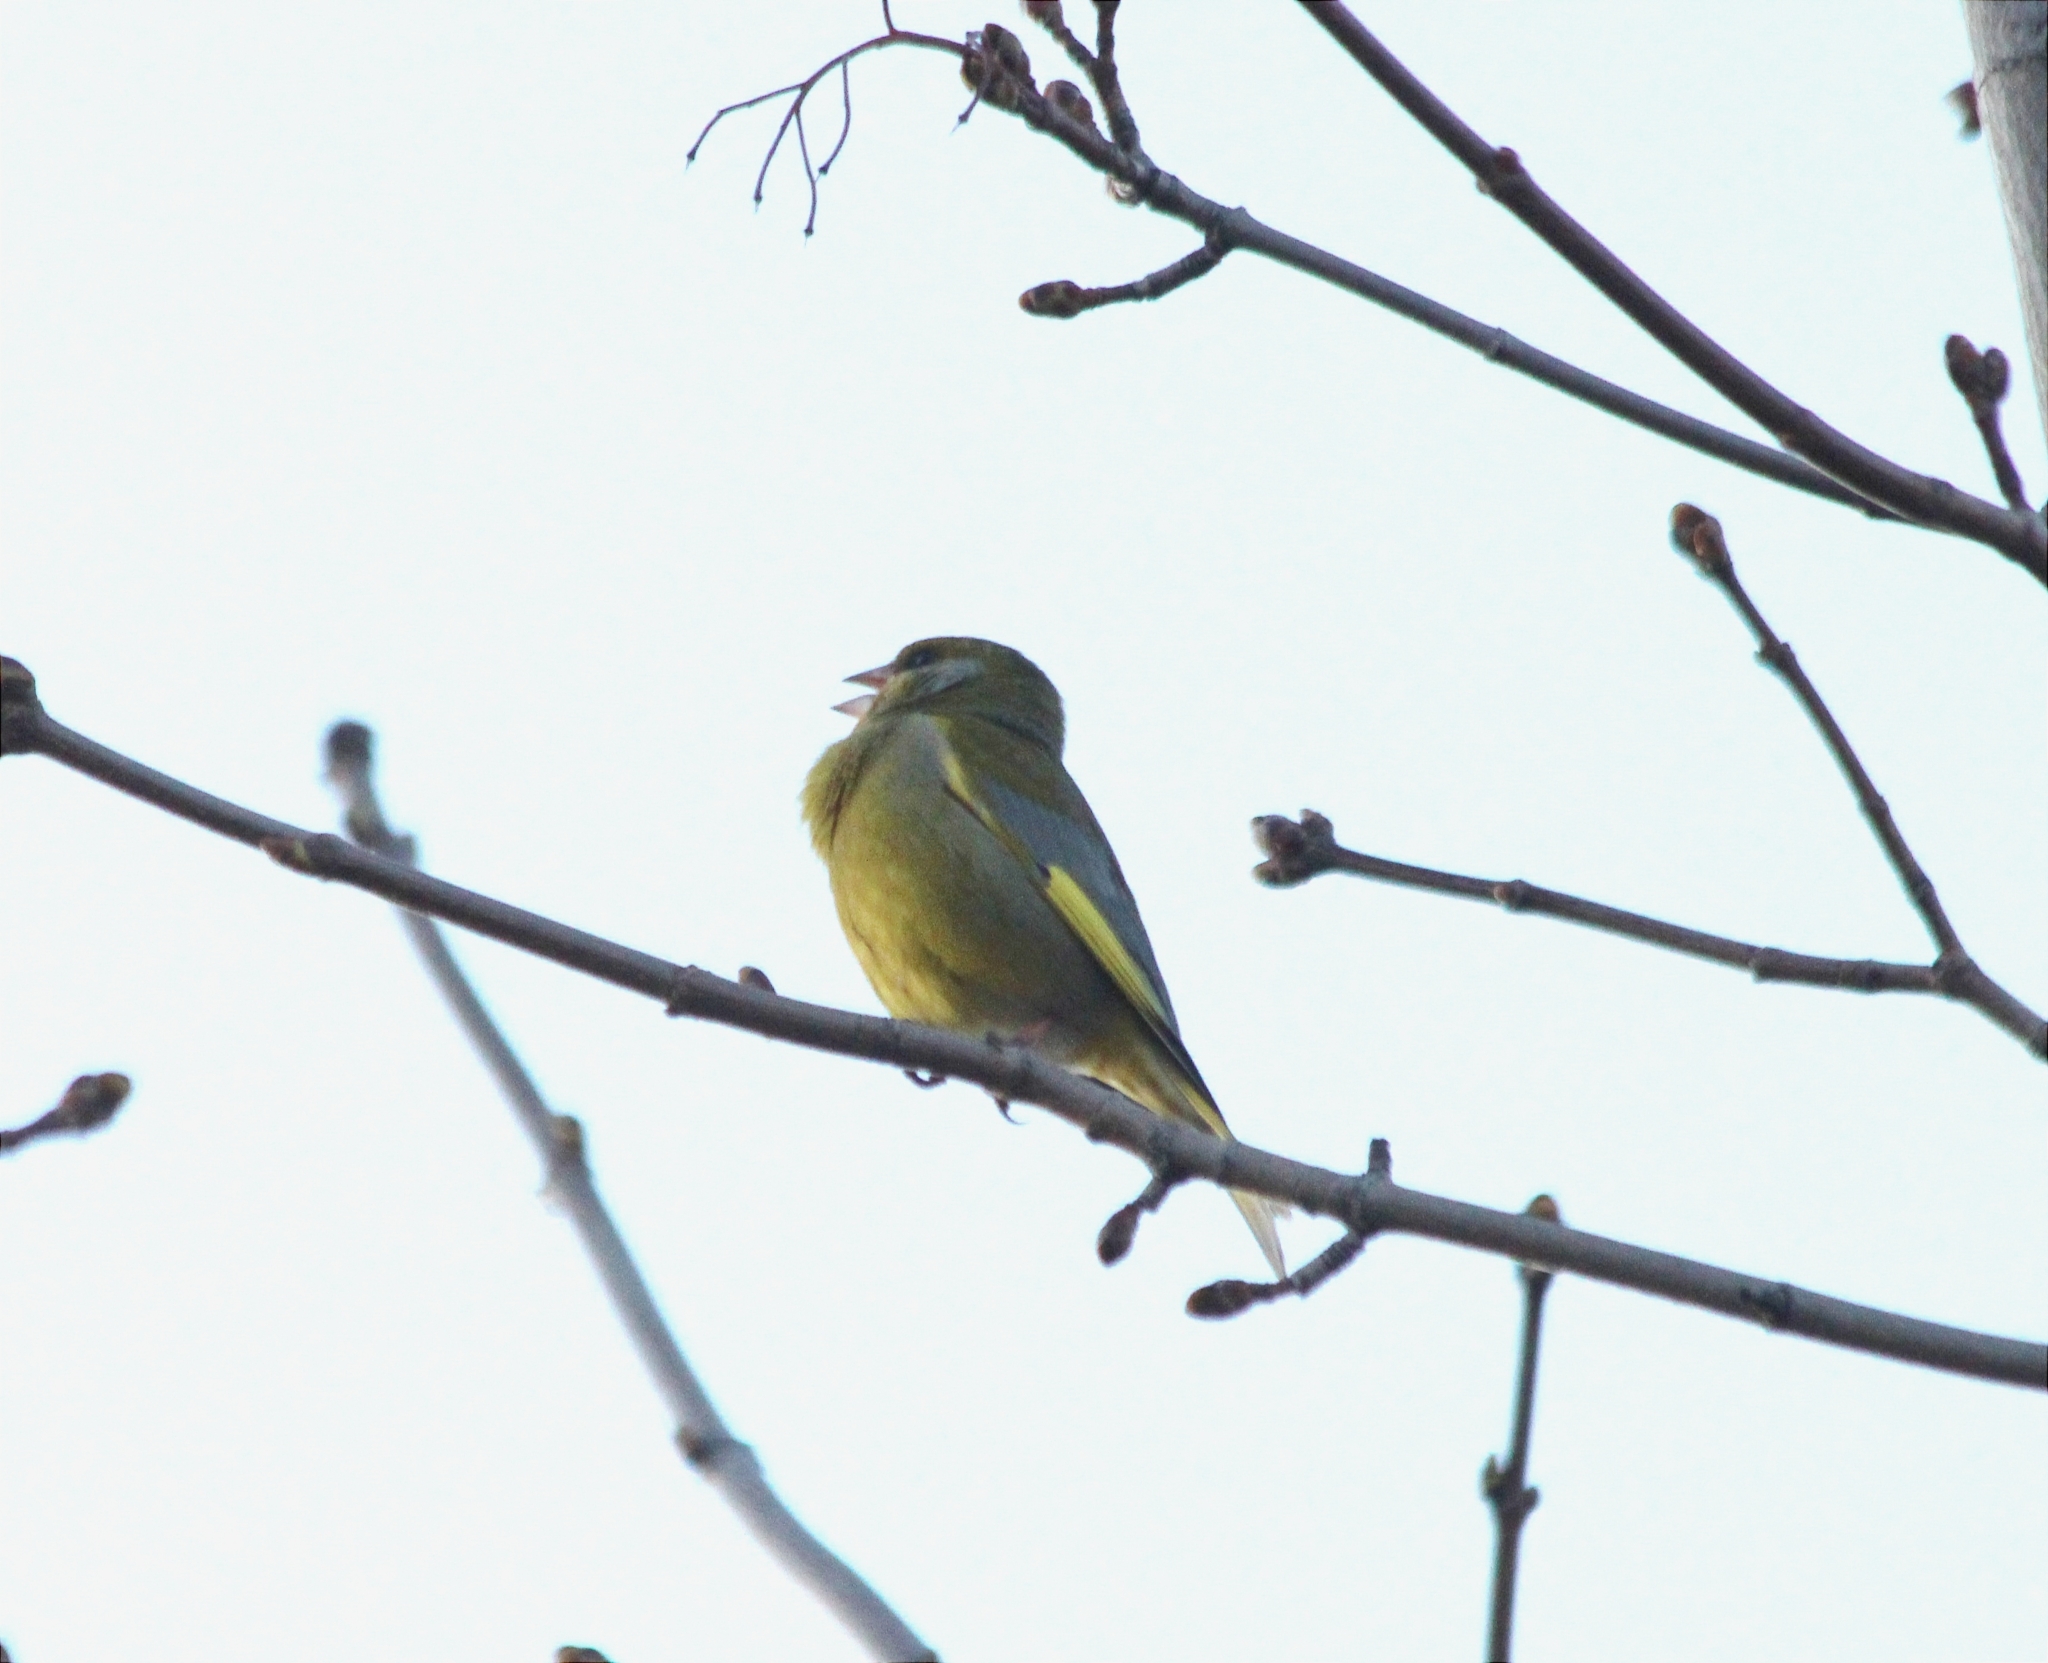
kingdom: Plantae
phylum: Tracheophyta
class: Liliopsida
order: Poales
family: Poaceae
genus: Chloris
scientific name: Chloris chloris
